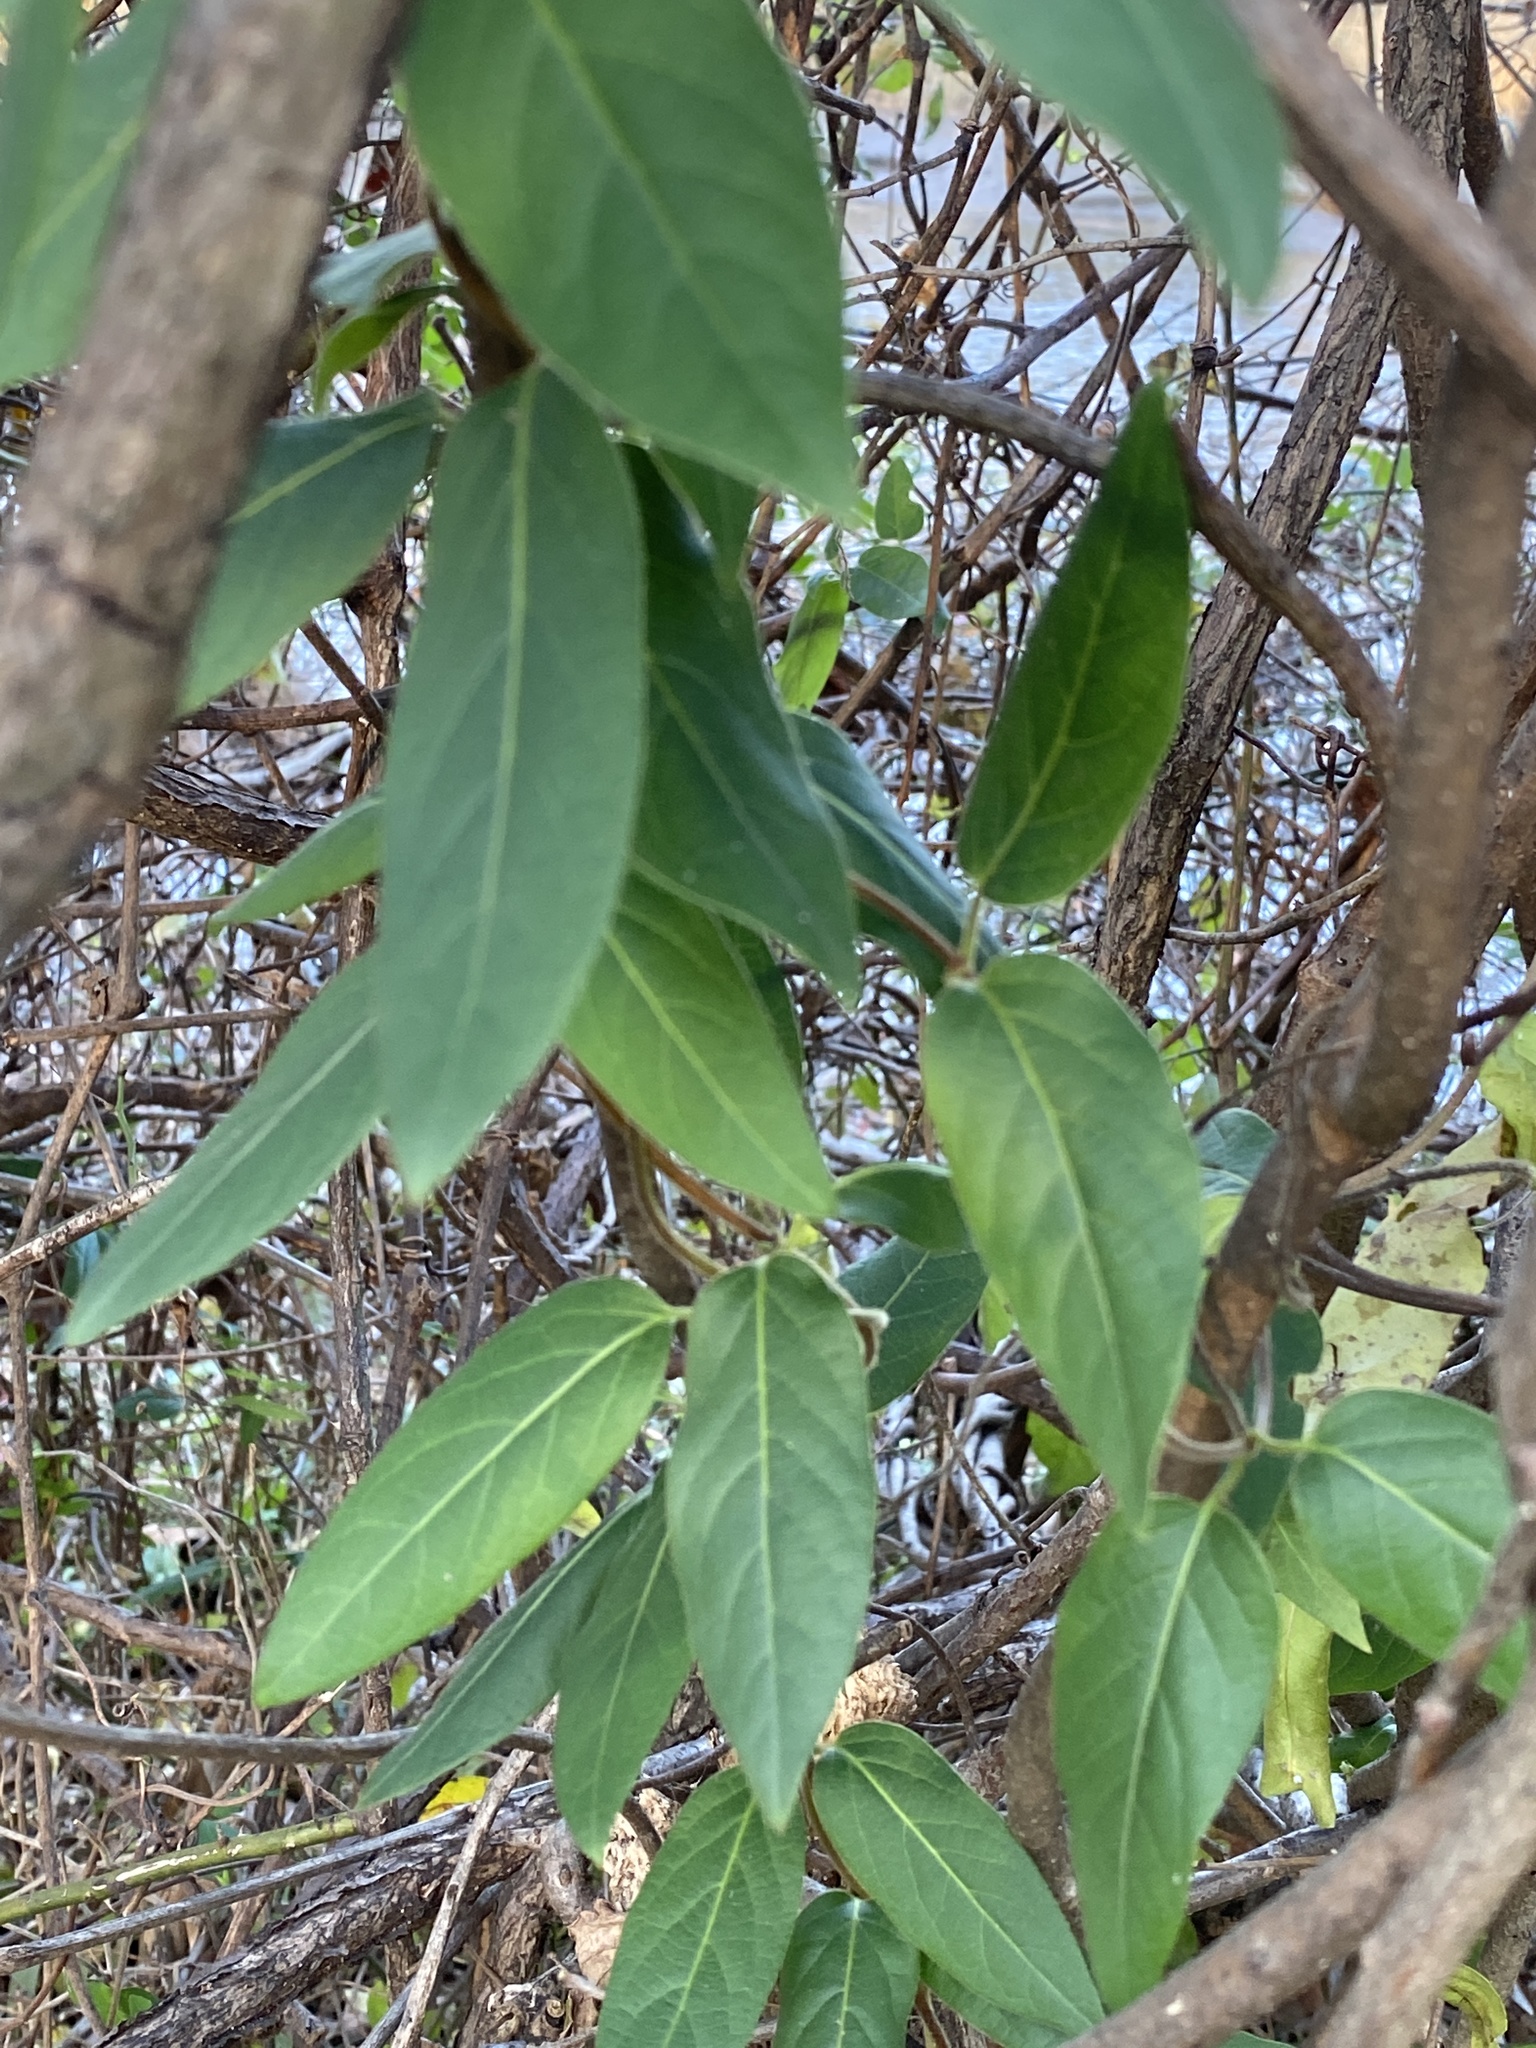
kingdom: Plantae
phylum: Tracheophyta
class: Magnoliopsida
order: Dipsacales
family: Caprifoliaceae
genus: Lonicera
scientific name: Lonicera japonica
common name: Japanese honeysuckle
